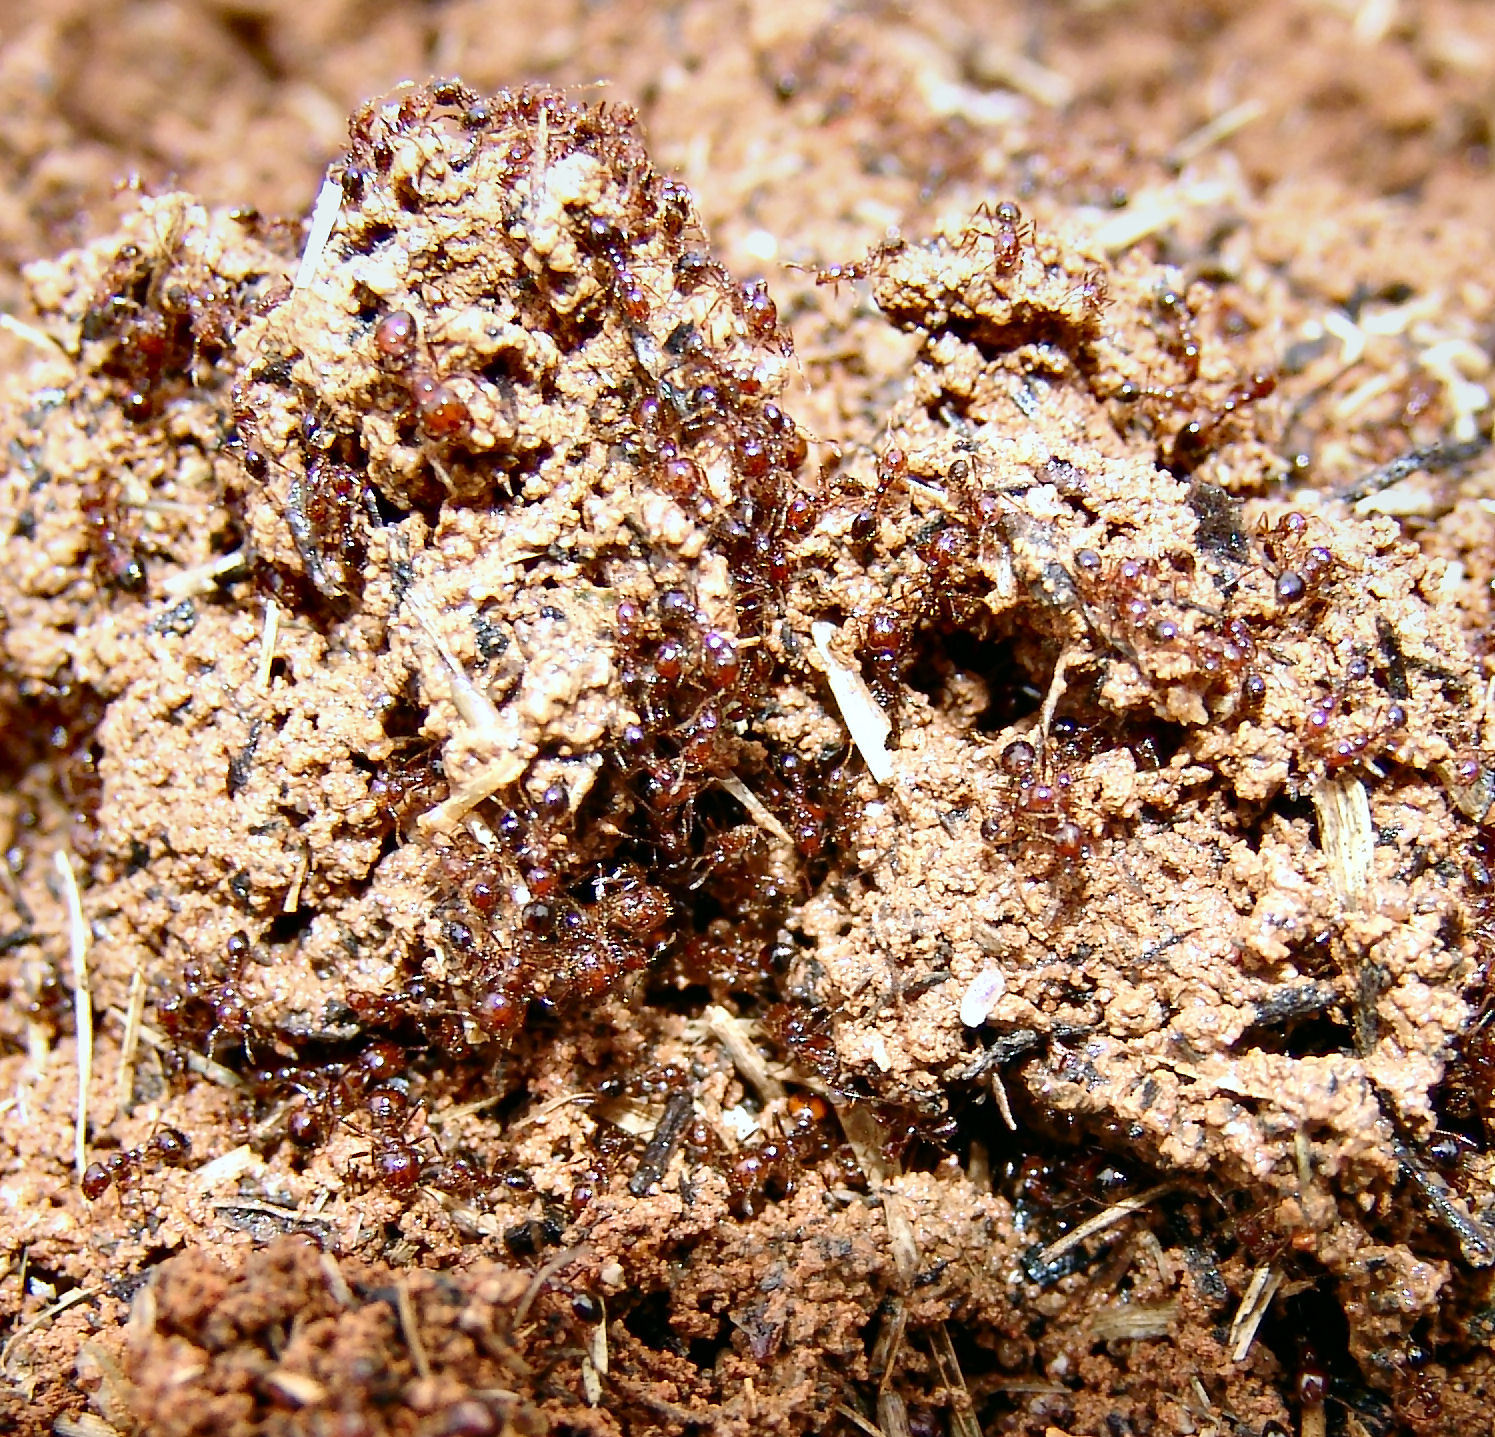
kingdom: Animalia
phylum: Arthropoda
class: Insecta
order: Hymenoptera
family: Formicidae
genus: Solenopsis
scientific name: Solenopsis
